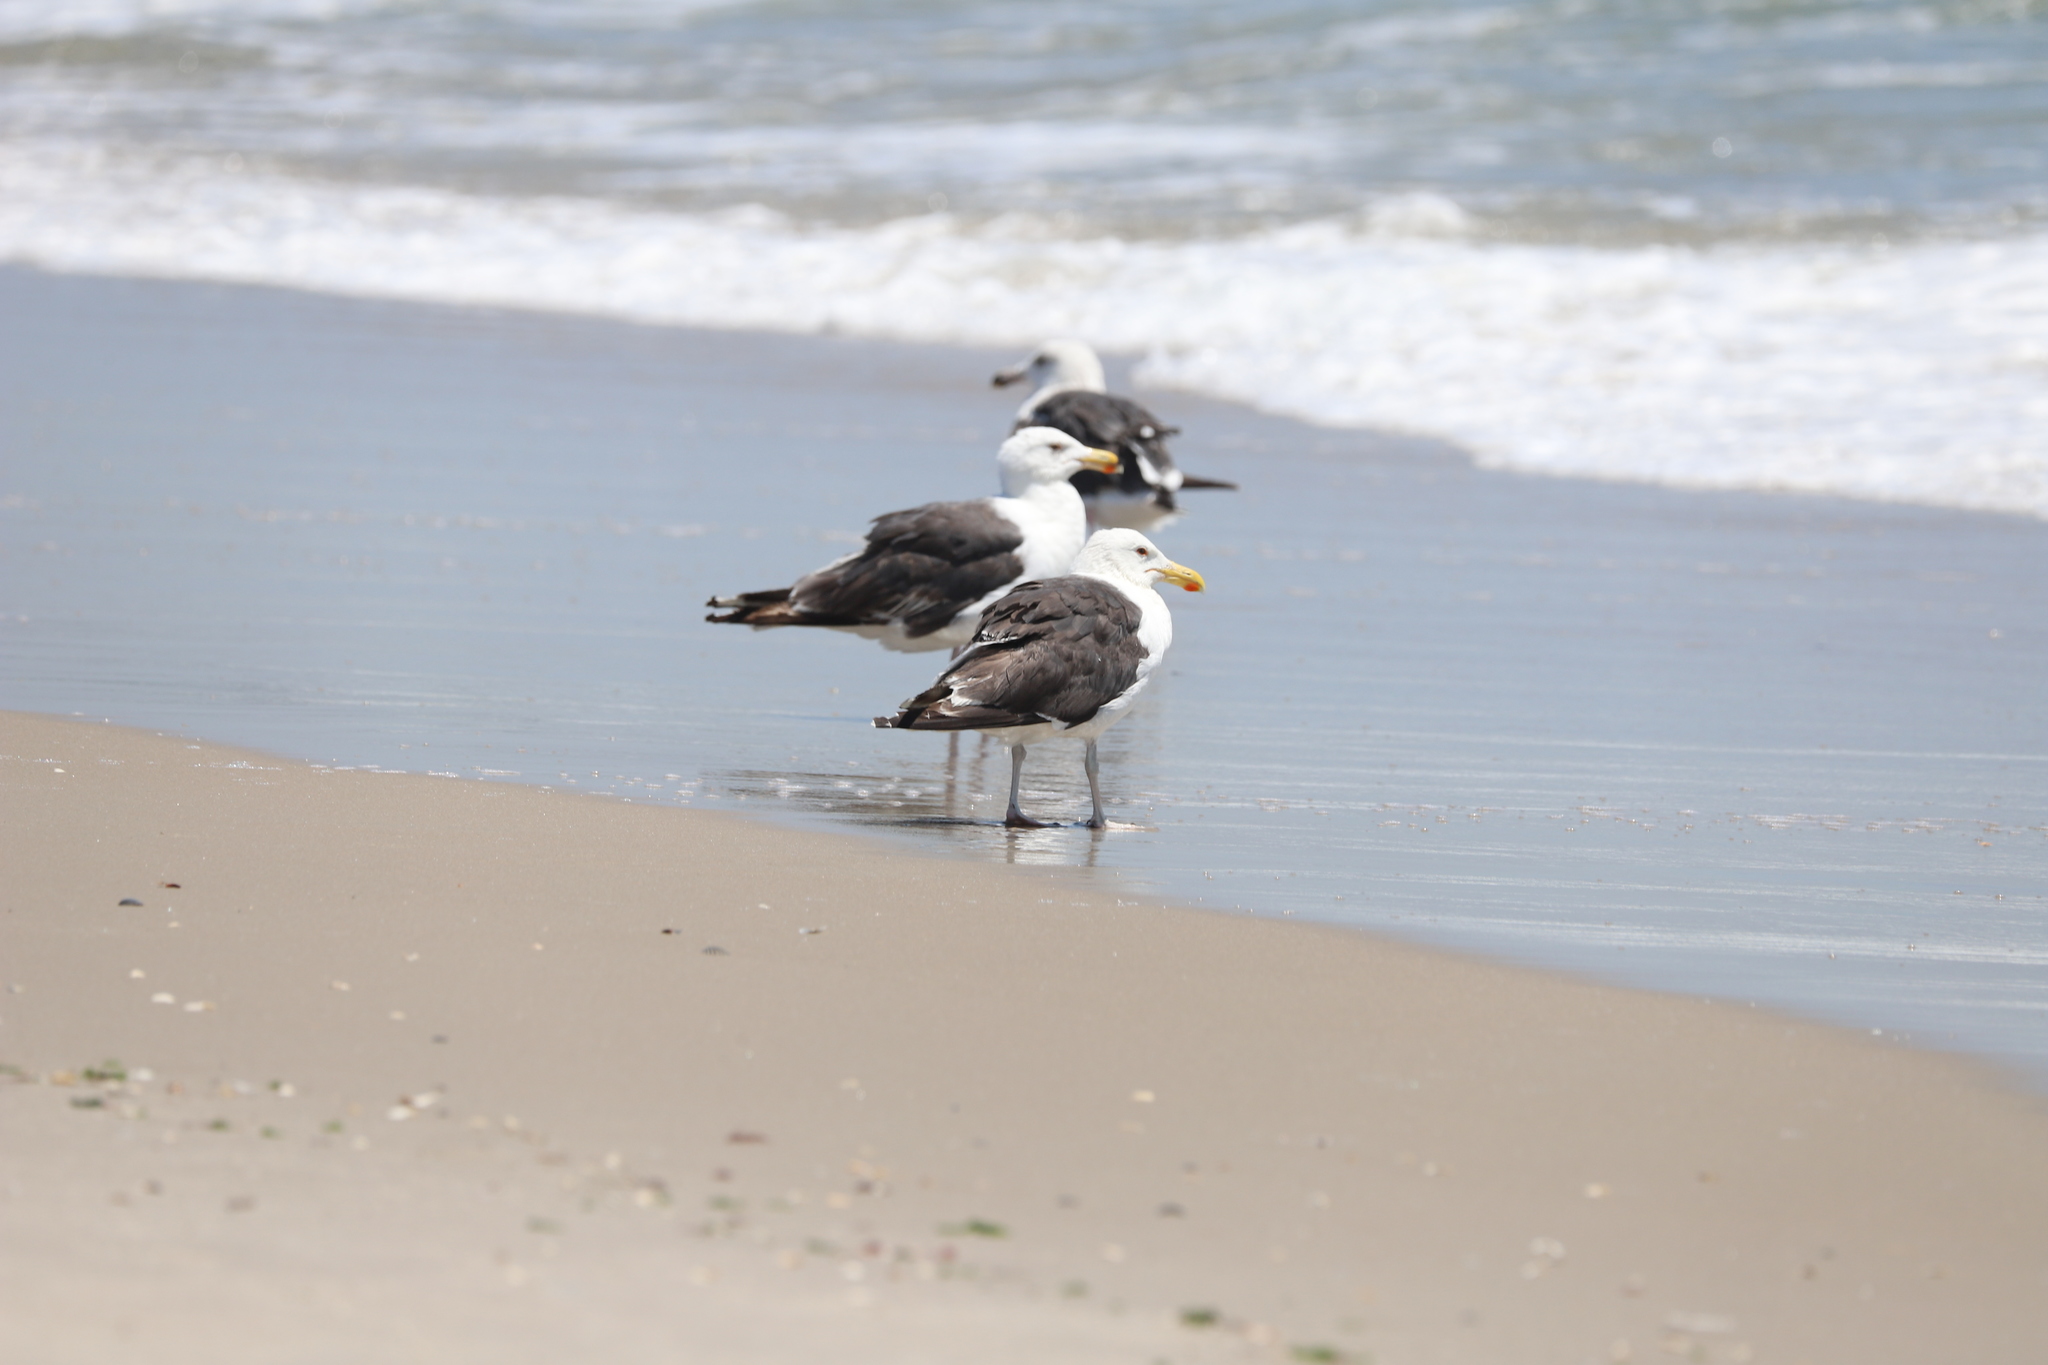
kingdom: Animalia
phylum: Chordata
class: Aves
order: Charadriiformes
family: Laridae
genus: Larus
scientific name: Larus marinus
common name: Great black-backed gull
